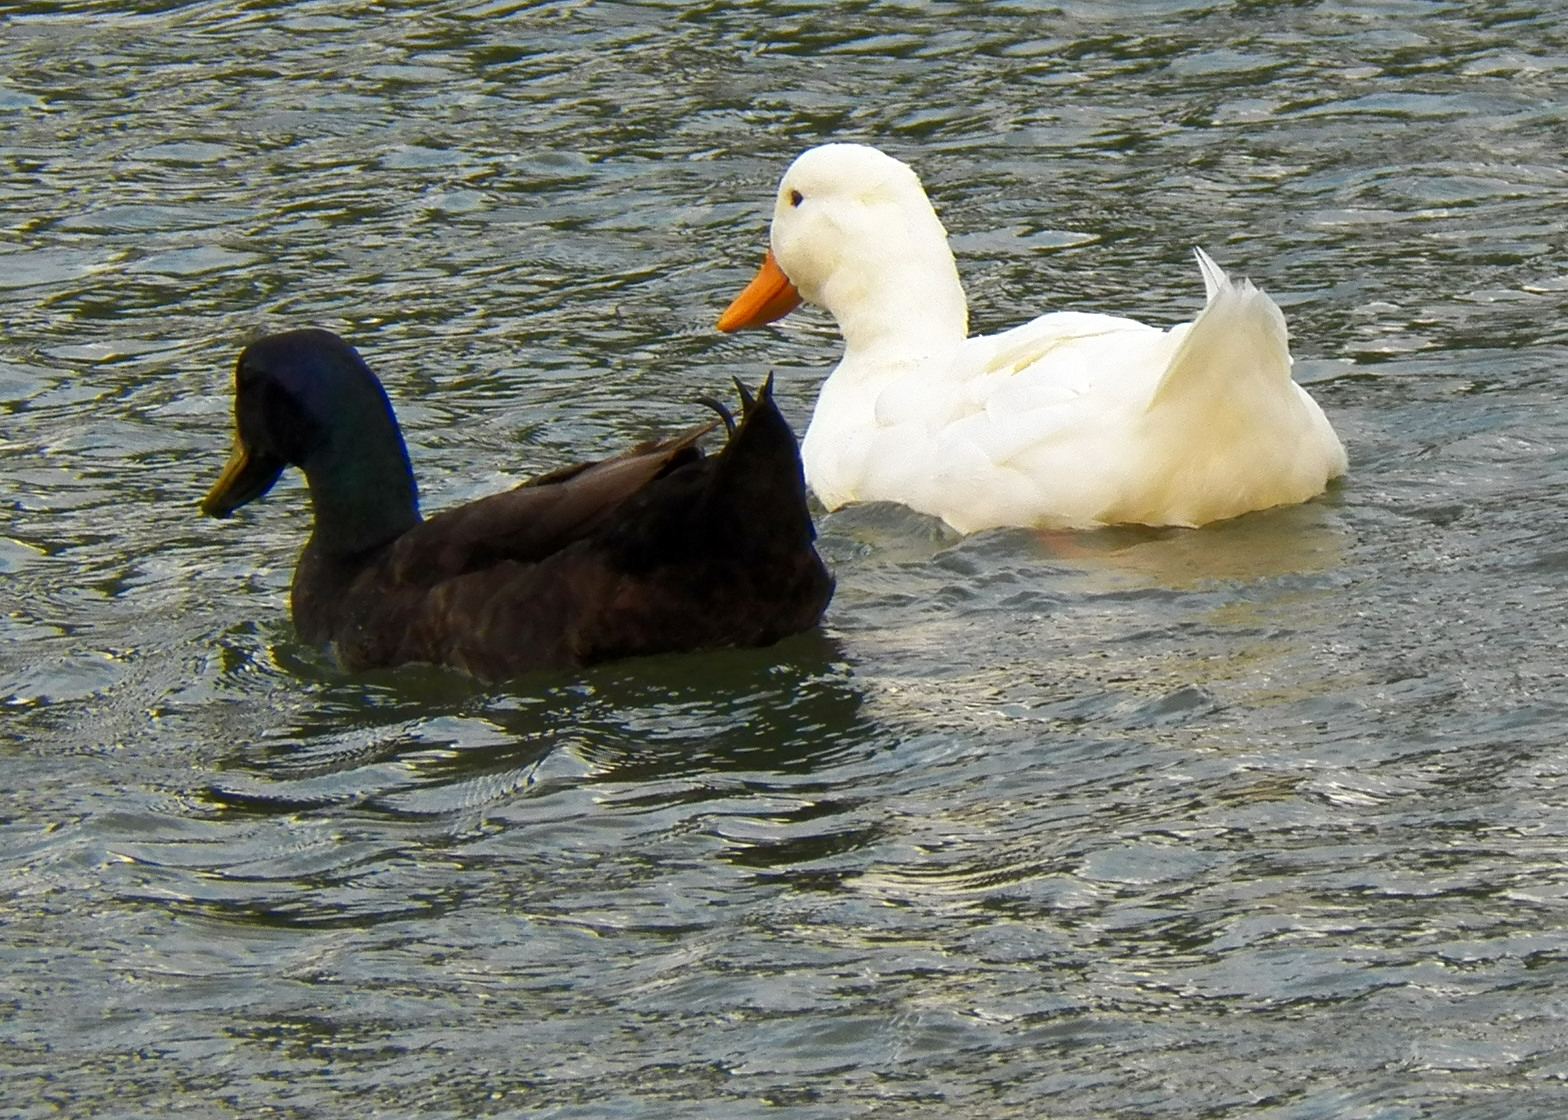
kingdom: Animalia
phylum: Chordata
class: Aves
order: Anseriformes
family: Anatidae
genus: Anas
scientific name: Anas platyrhynchos
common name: Mallard
